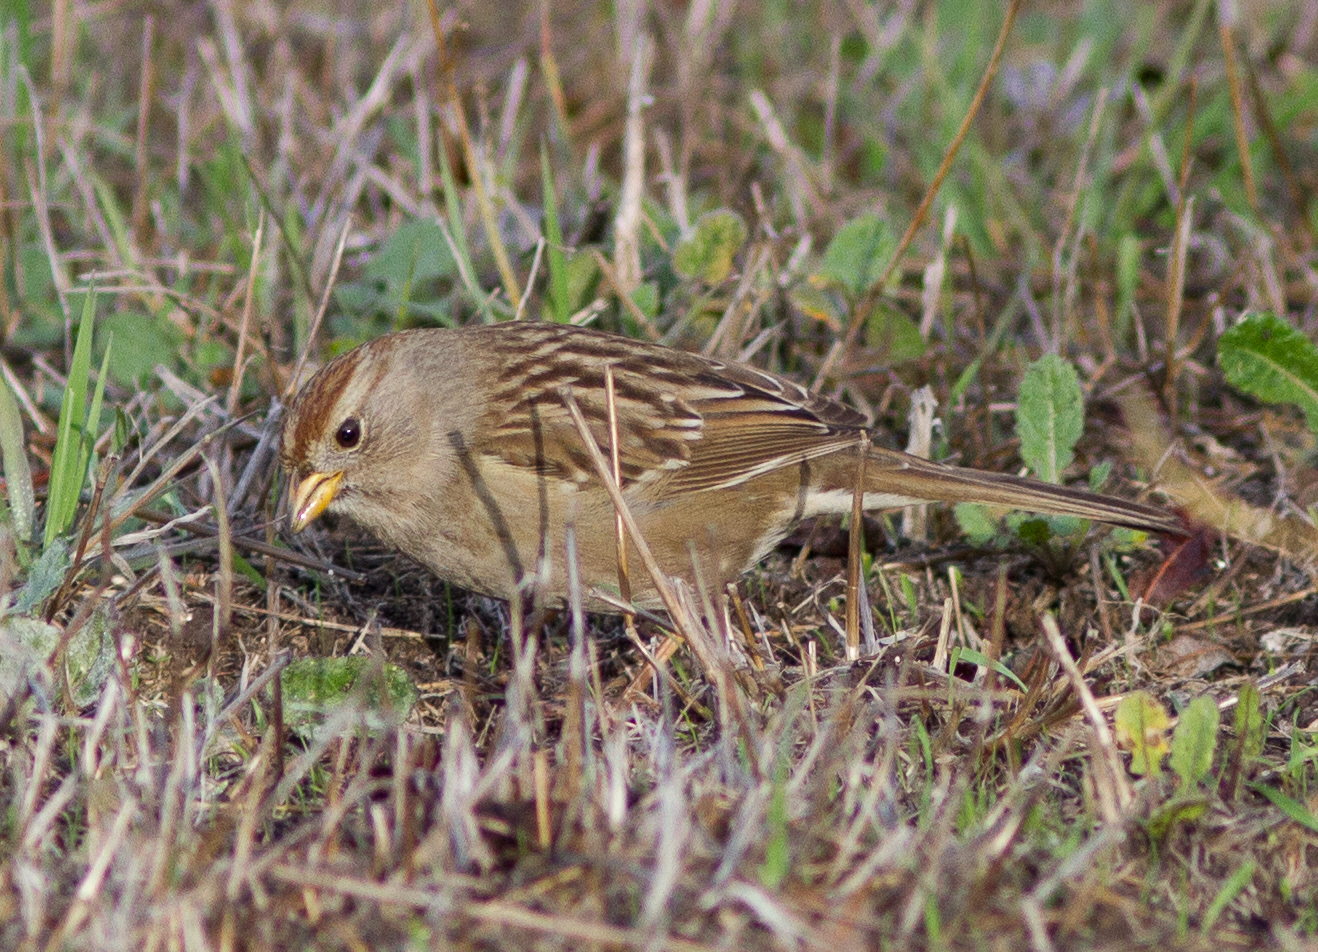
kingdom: Animalia
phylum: Chordata
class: Aves
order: Passeriformes
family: Passerellidae
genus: Zonotrichia
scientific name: Zonotrichia leucophrys
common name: White-crowned sparrow
